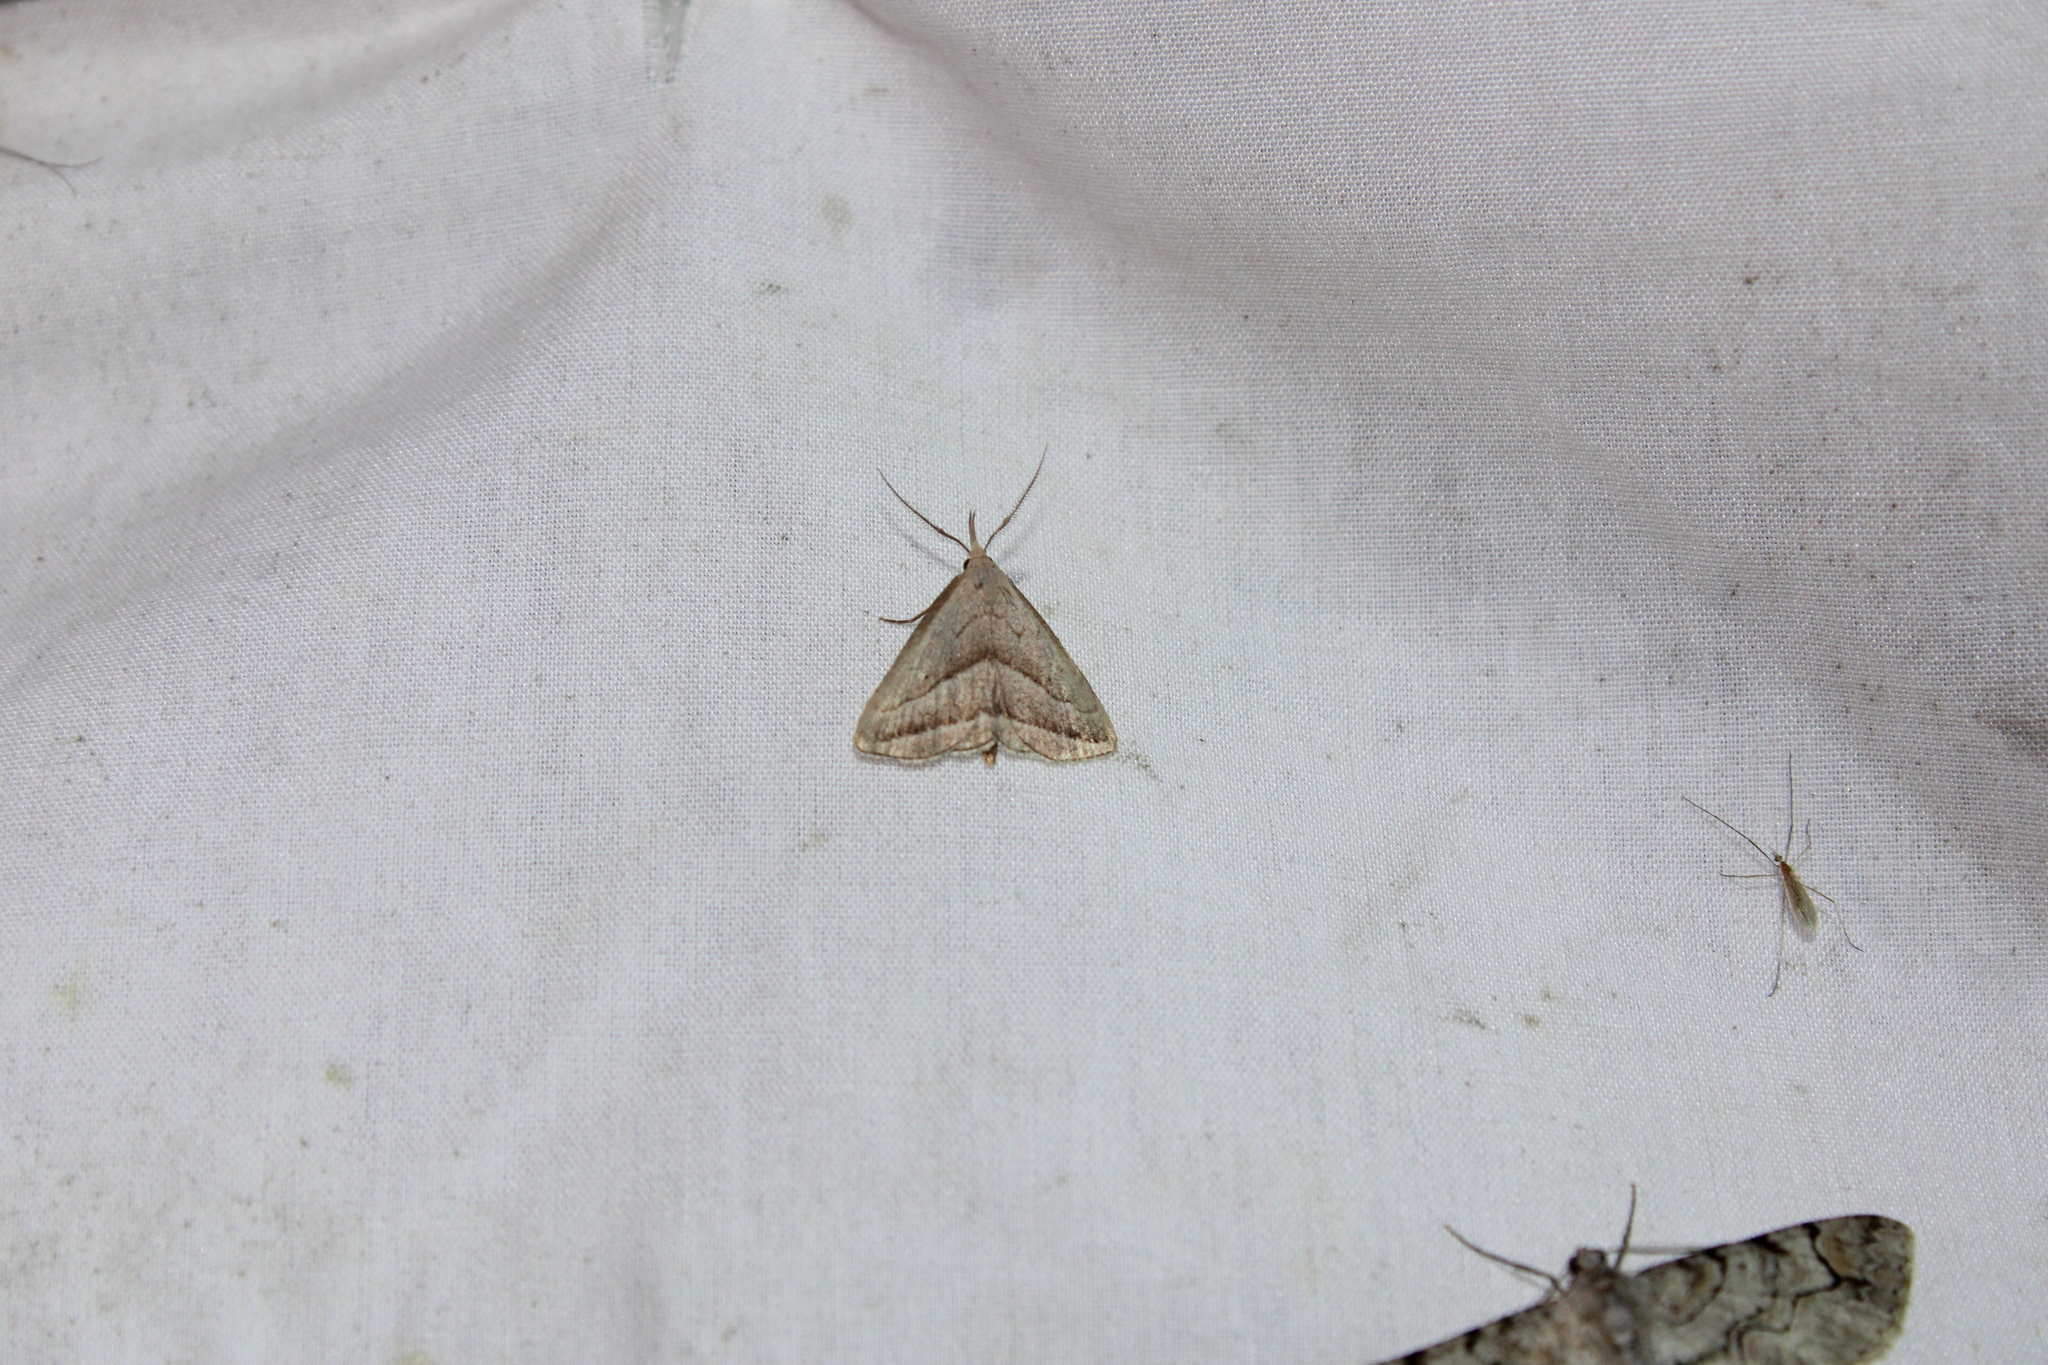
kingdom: Animalia
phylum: Arthropoda
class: Insecta
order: Lepidoptera
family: Erebidae
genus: Macrochilo
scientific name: Macrochilo absorptalis
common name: Slant-lined owlet
